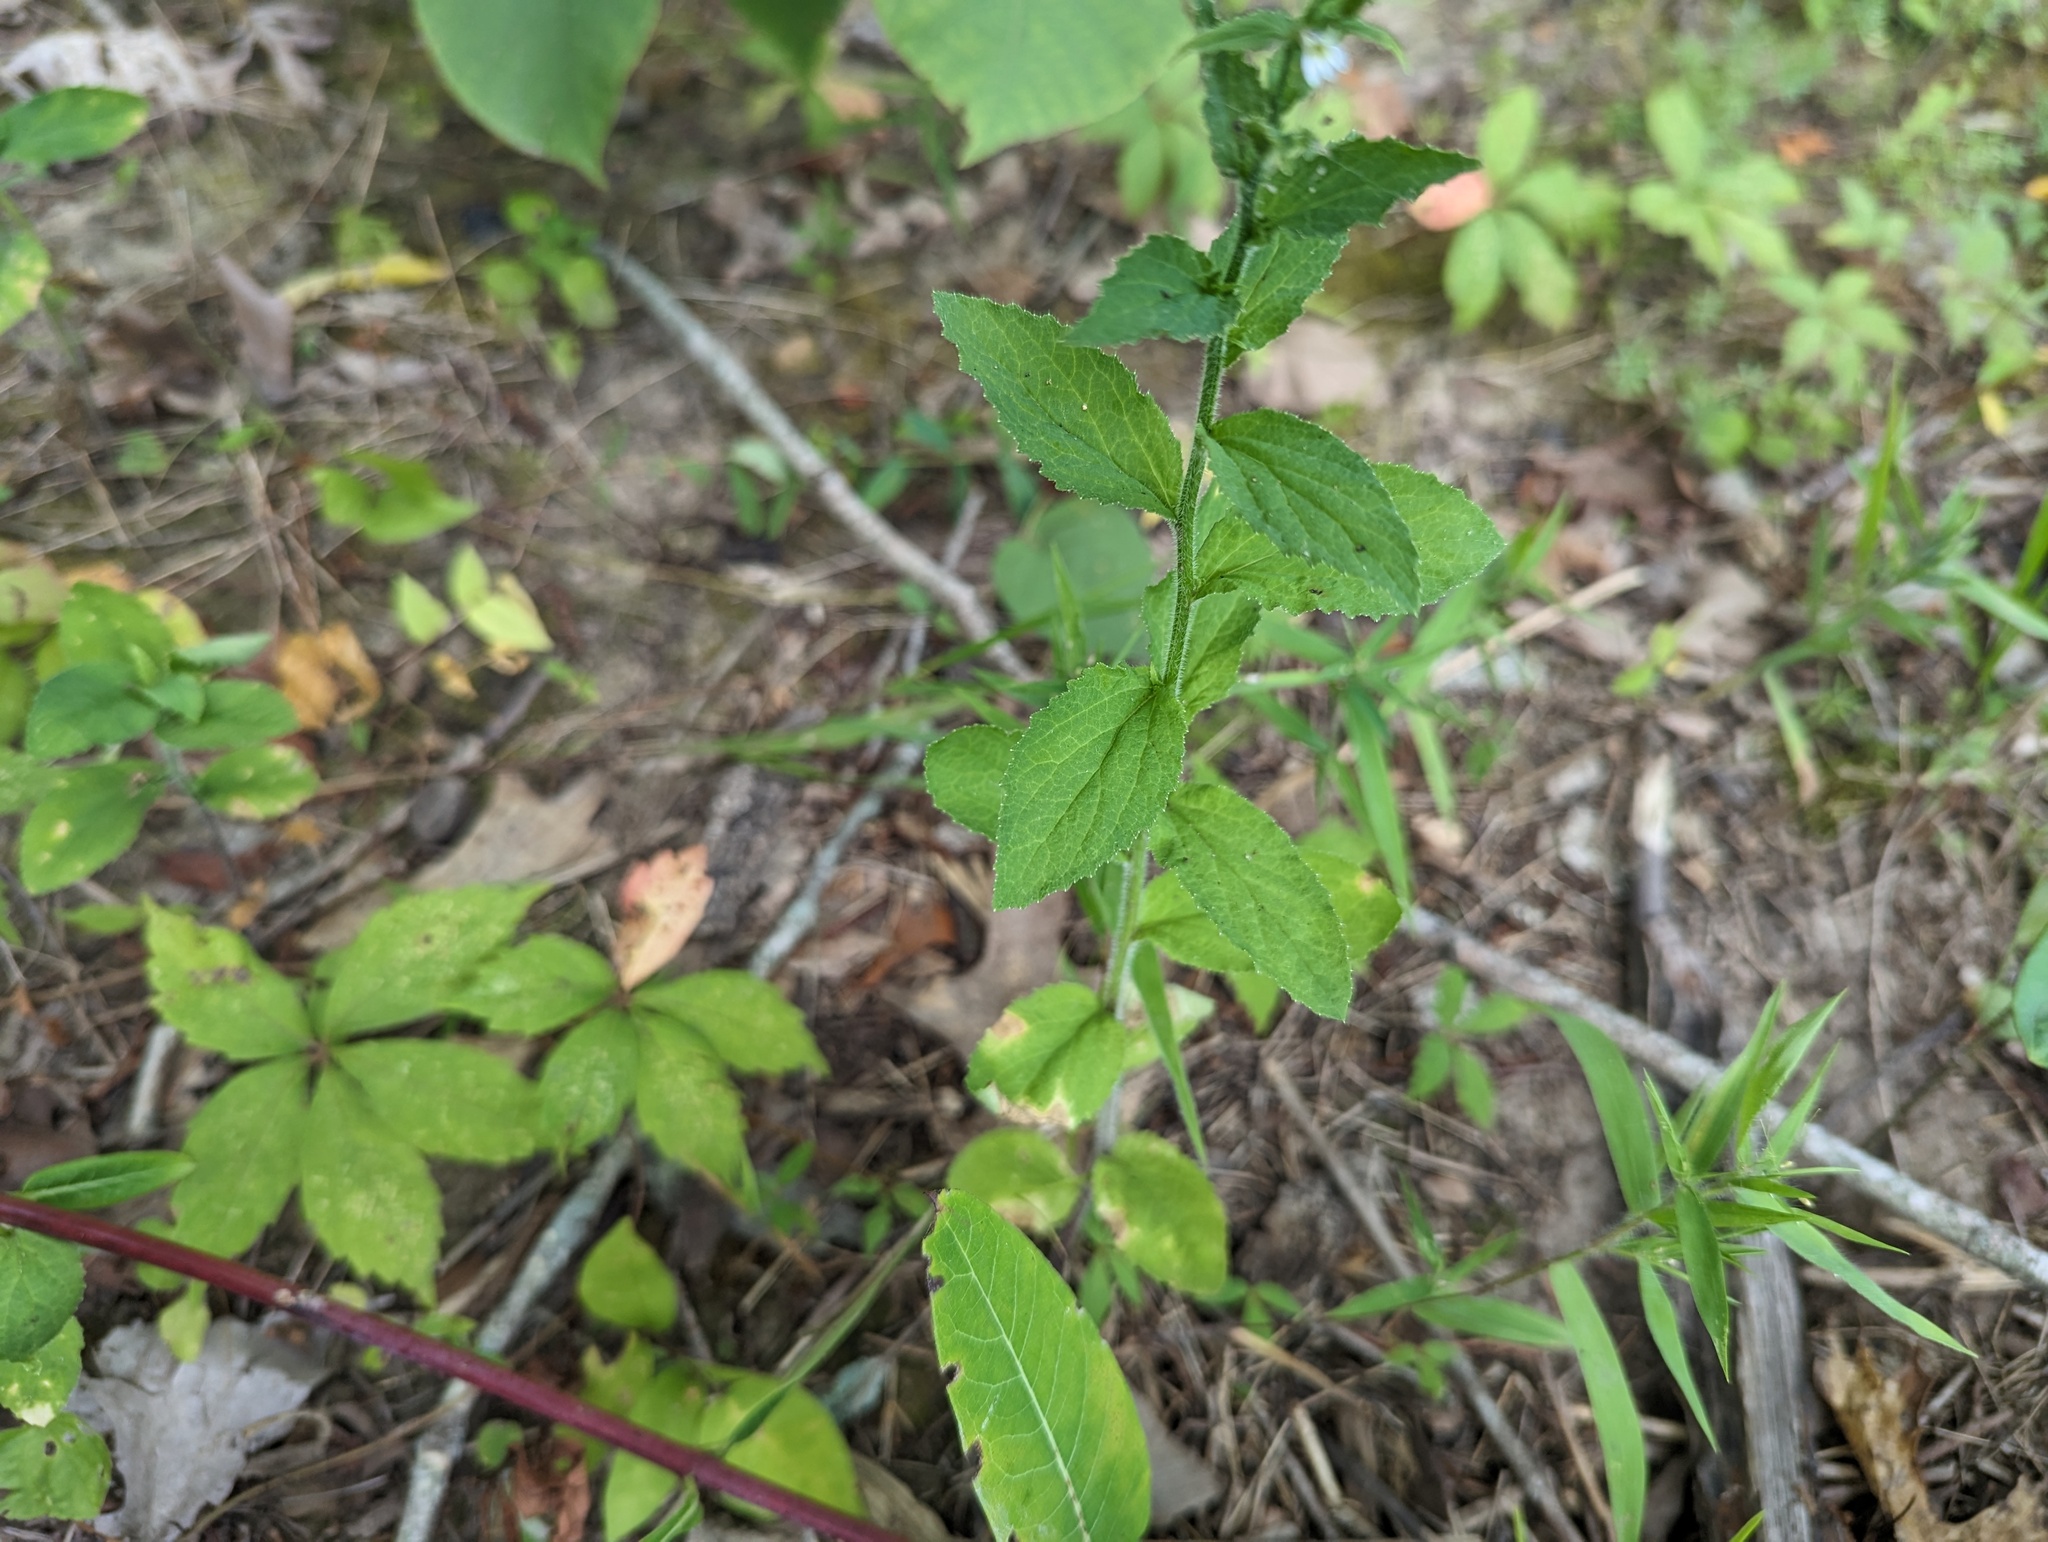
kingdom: Plantae
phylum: Tracheophyta
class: Magnoliopsida
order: Asterales
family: Campanulaceae
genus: Lobelia
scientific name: Lobelia inflata
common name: Indian tobacco
